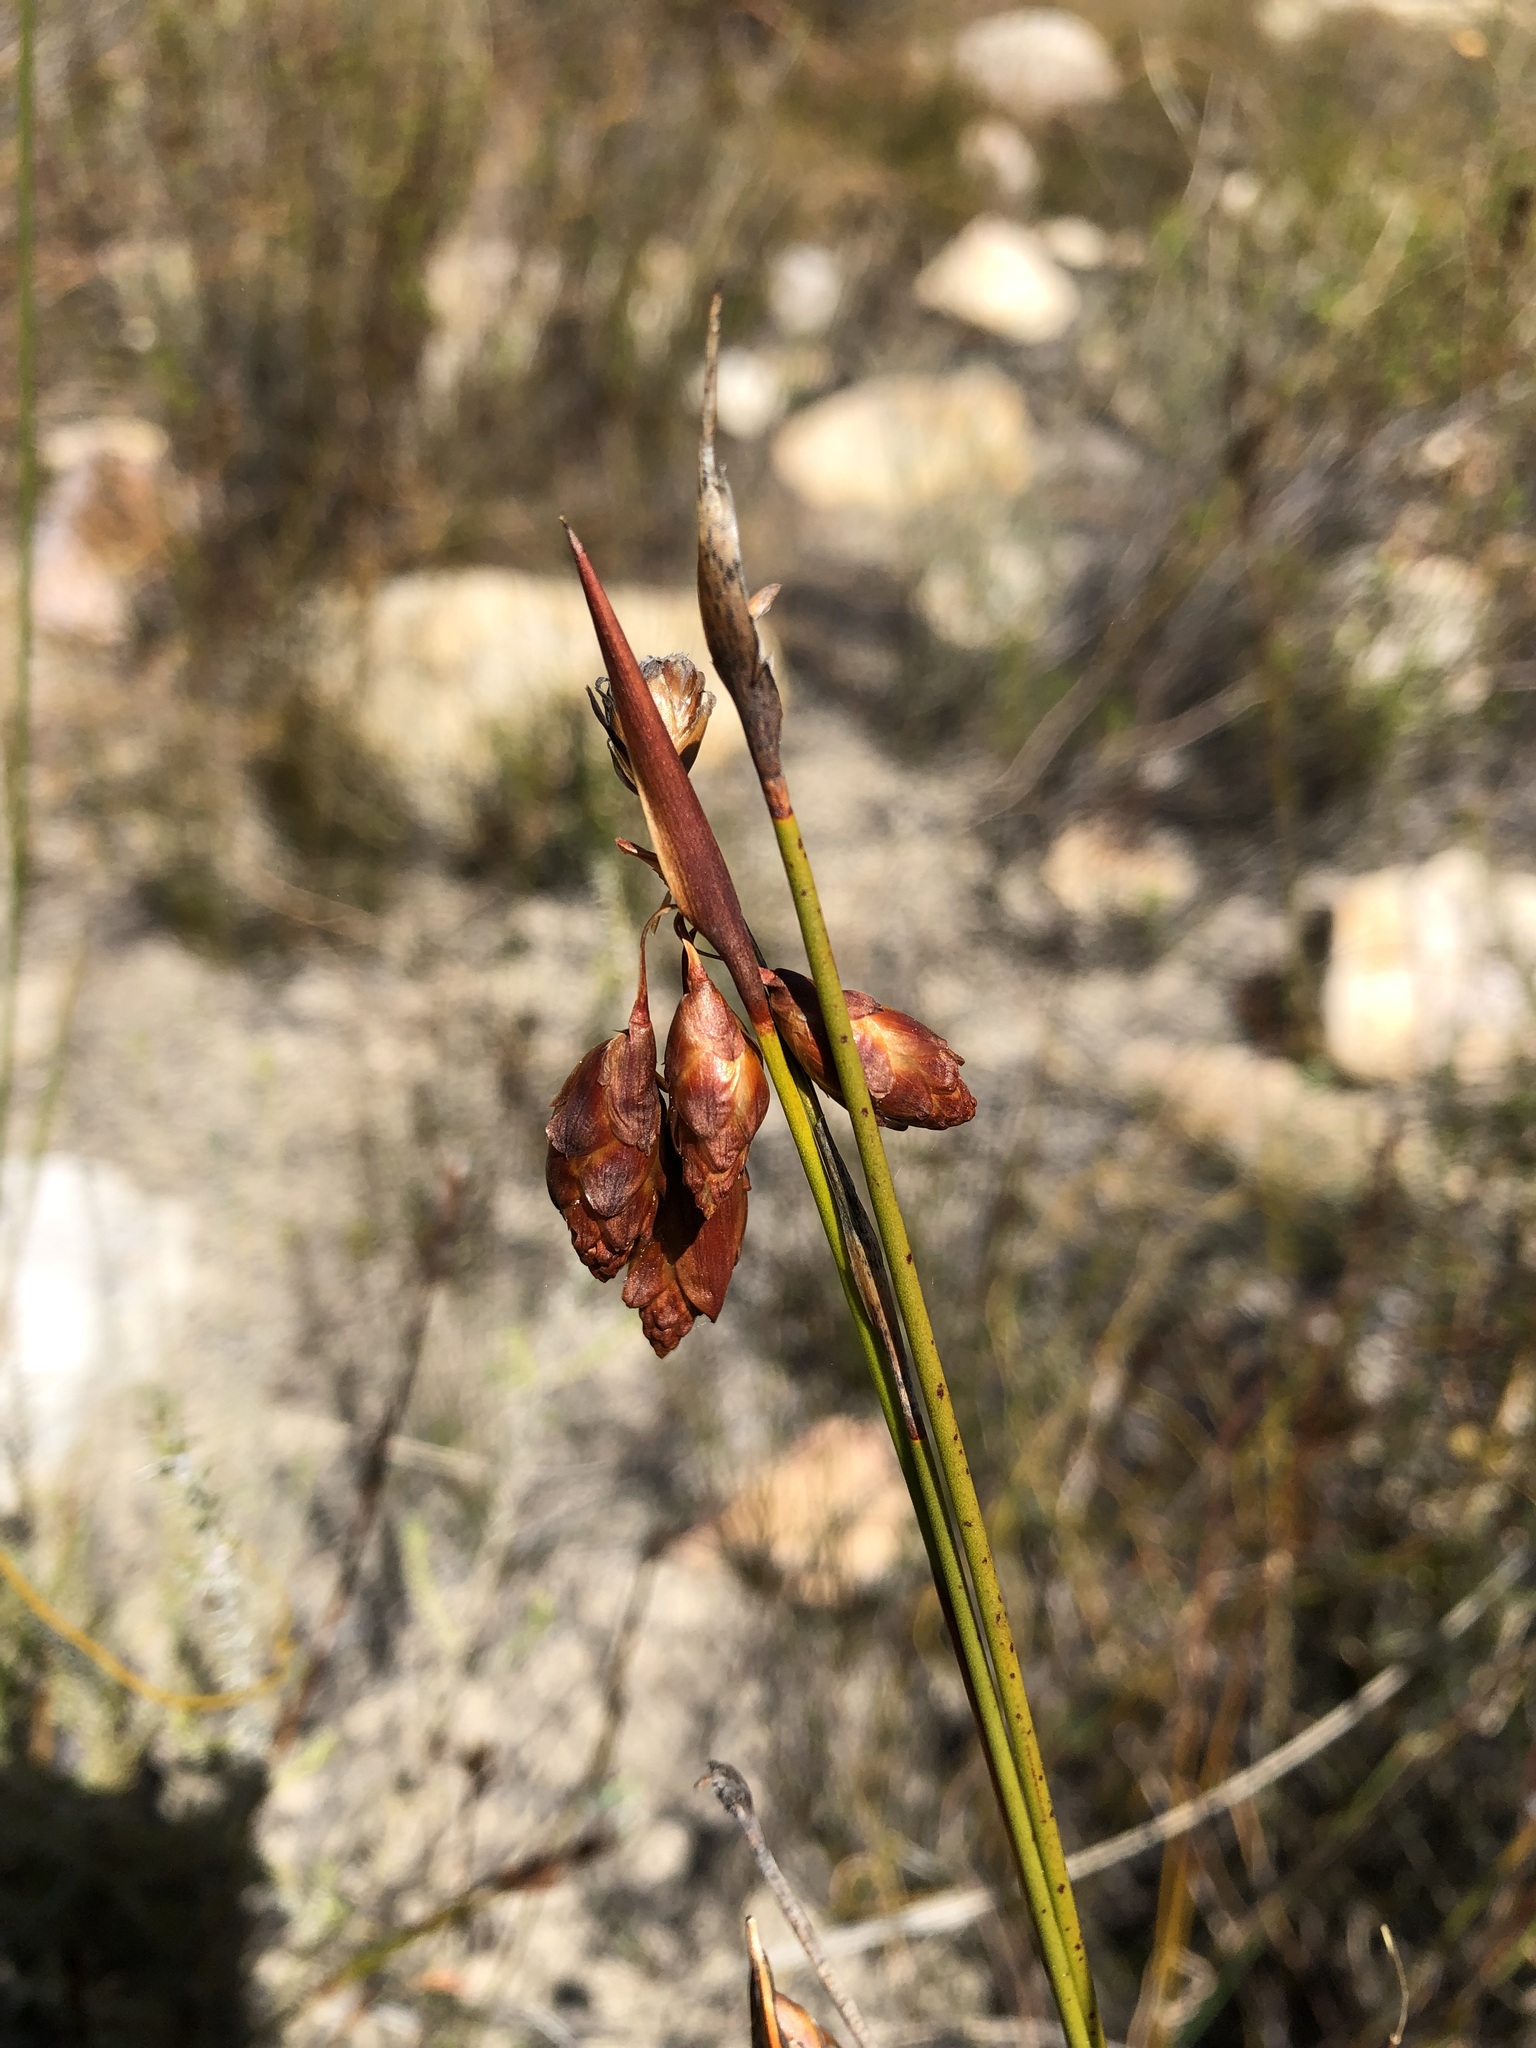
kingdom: Plantae
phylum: Tracheophyta
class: Liliopsida
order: Poales
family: Restionaceae
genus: Staberoha
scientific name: Staberoha distachyos
